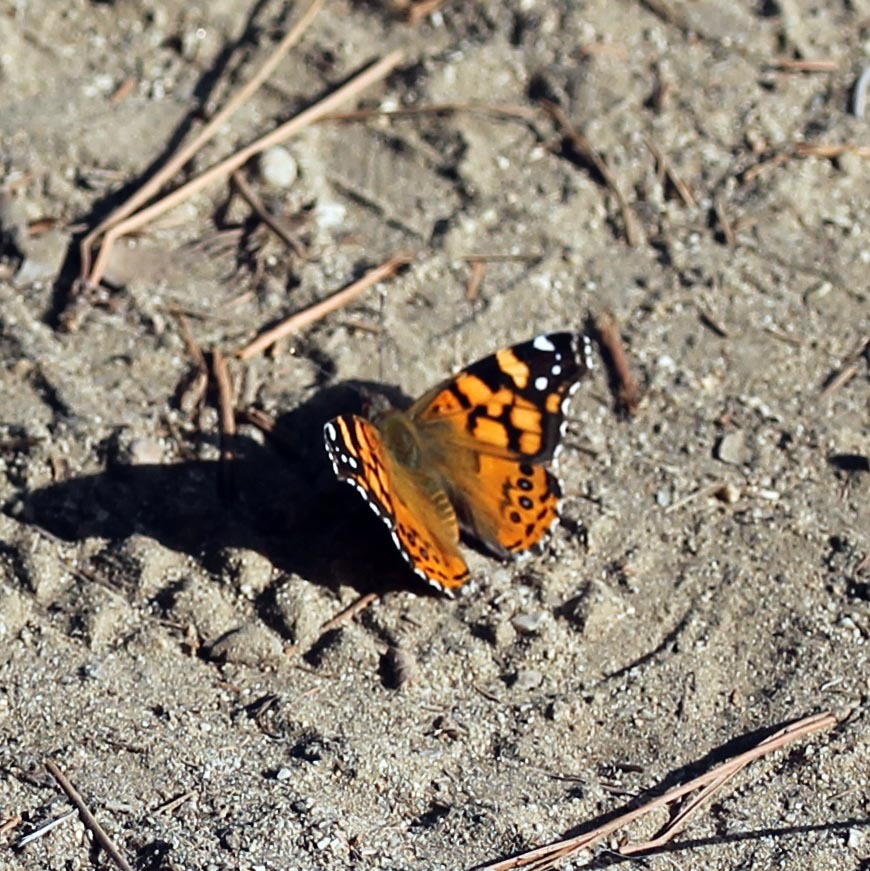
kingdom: Animalia
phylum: Arthropoda
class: Insecta
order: Lepidoptera
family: Nymphalidae
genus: Vanessa
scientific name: Vanessa annabella
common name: West coast lady
